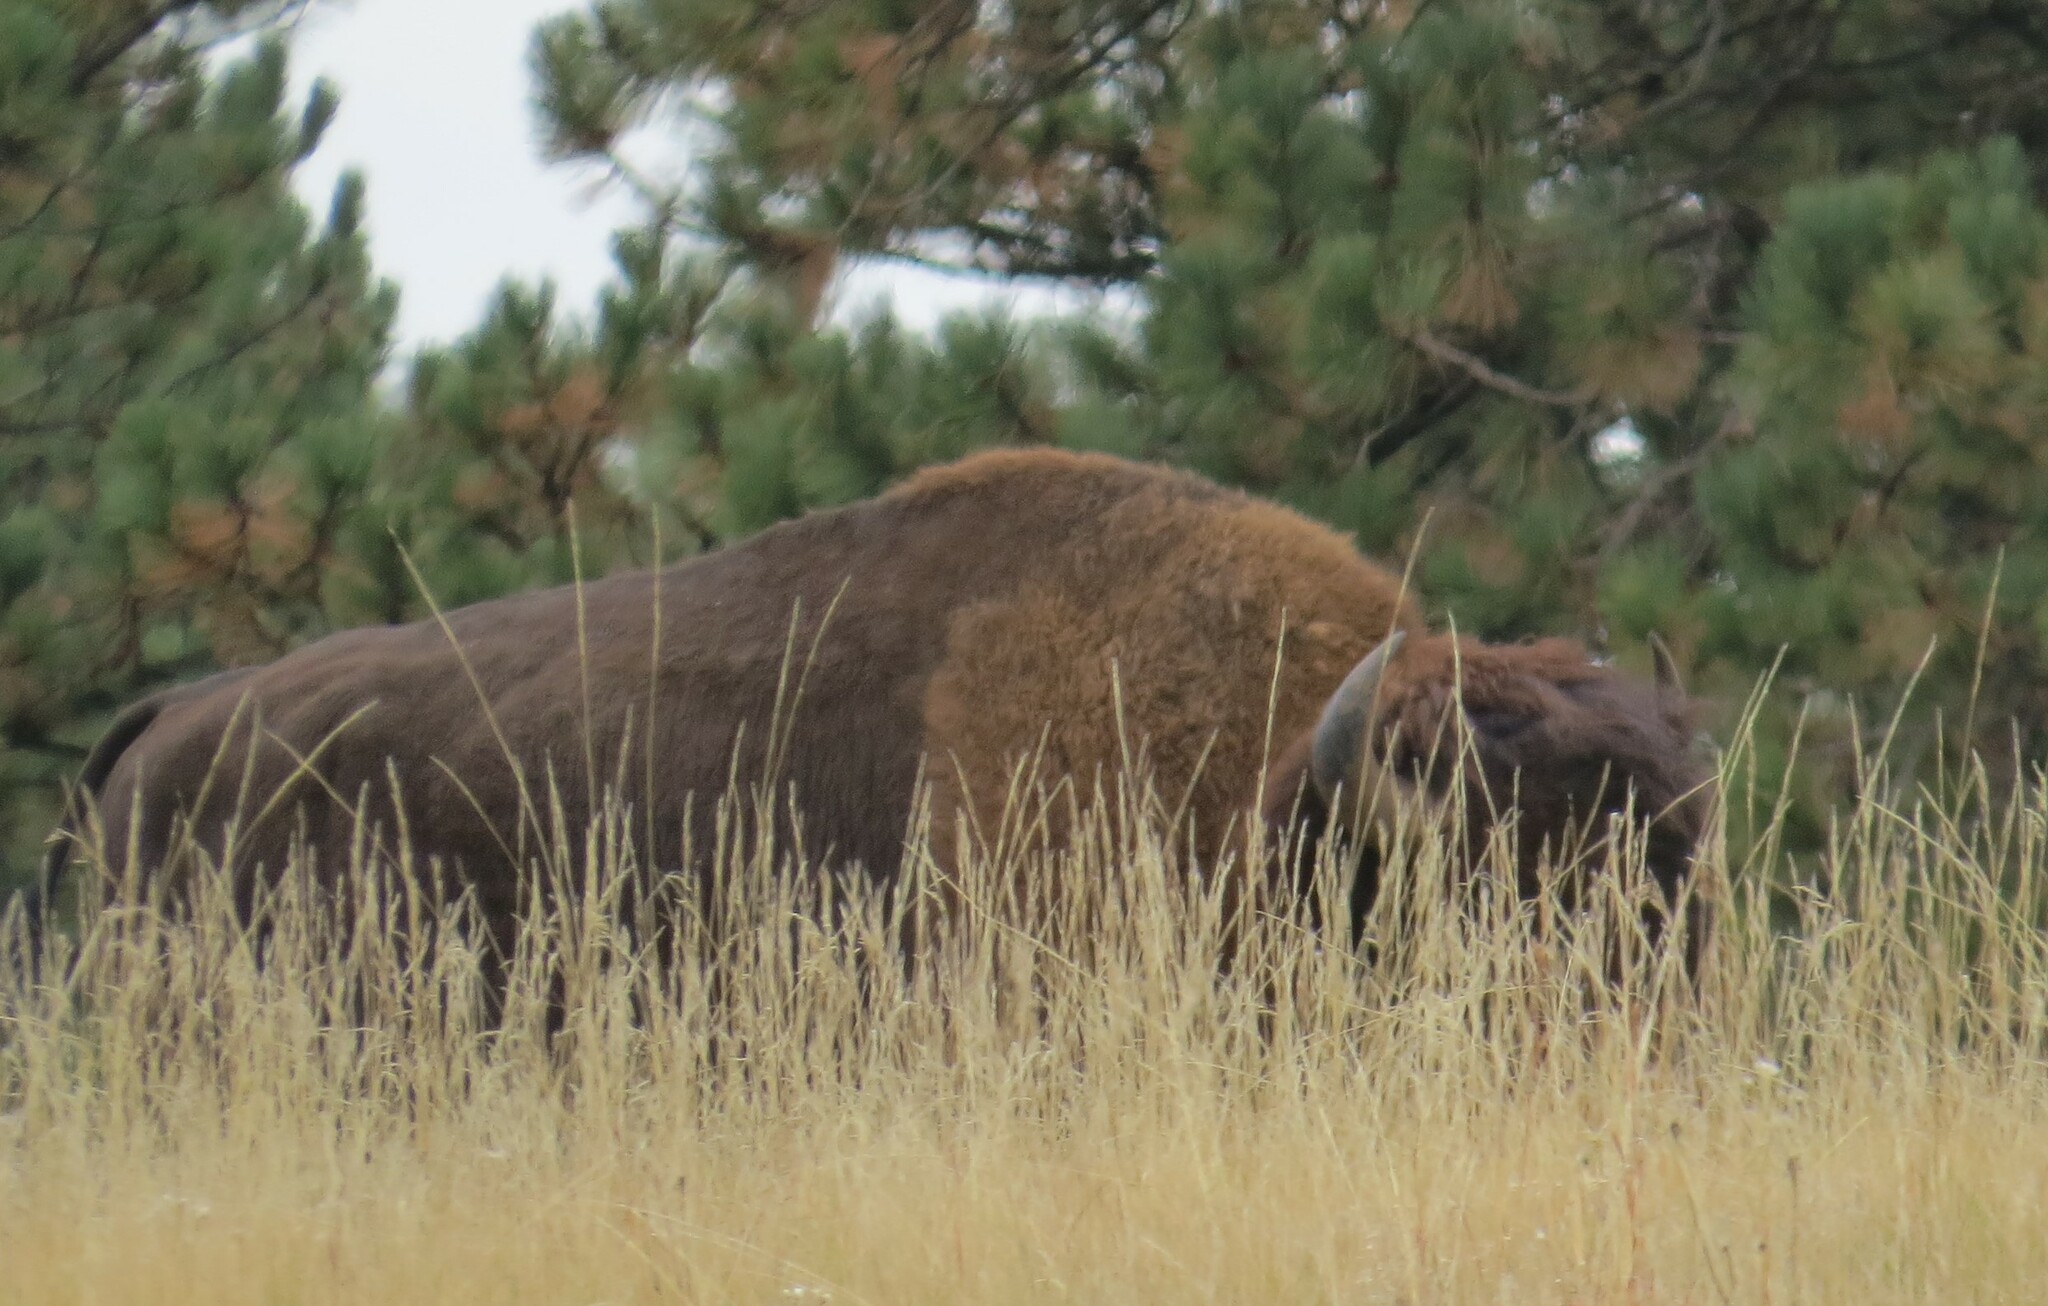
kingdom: Animalia
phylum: Chordata
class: Mammalia
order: Artiodactyla
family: Bovidae
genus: Bison
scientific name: Bison bison
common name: American bison
